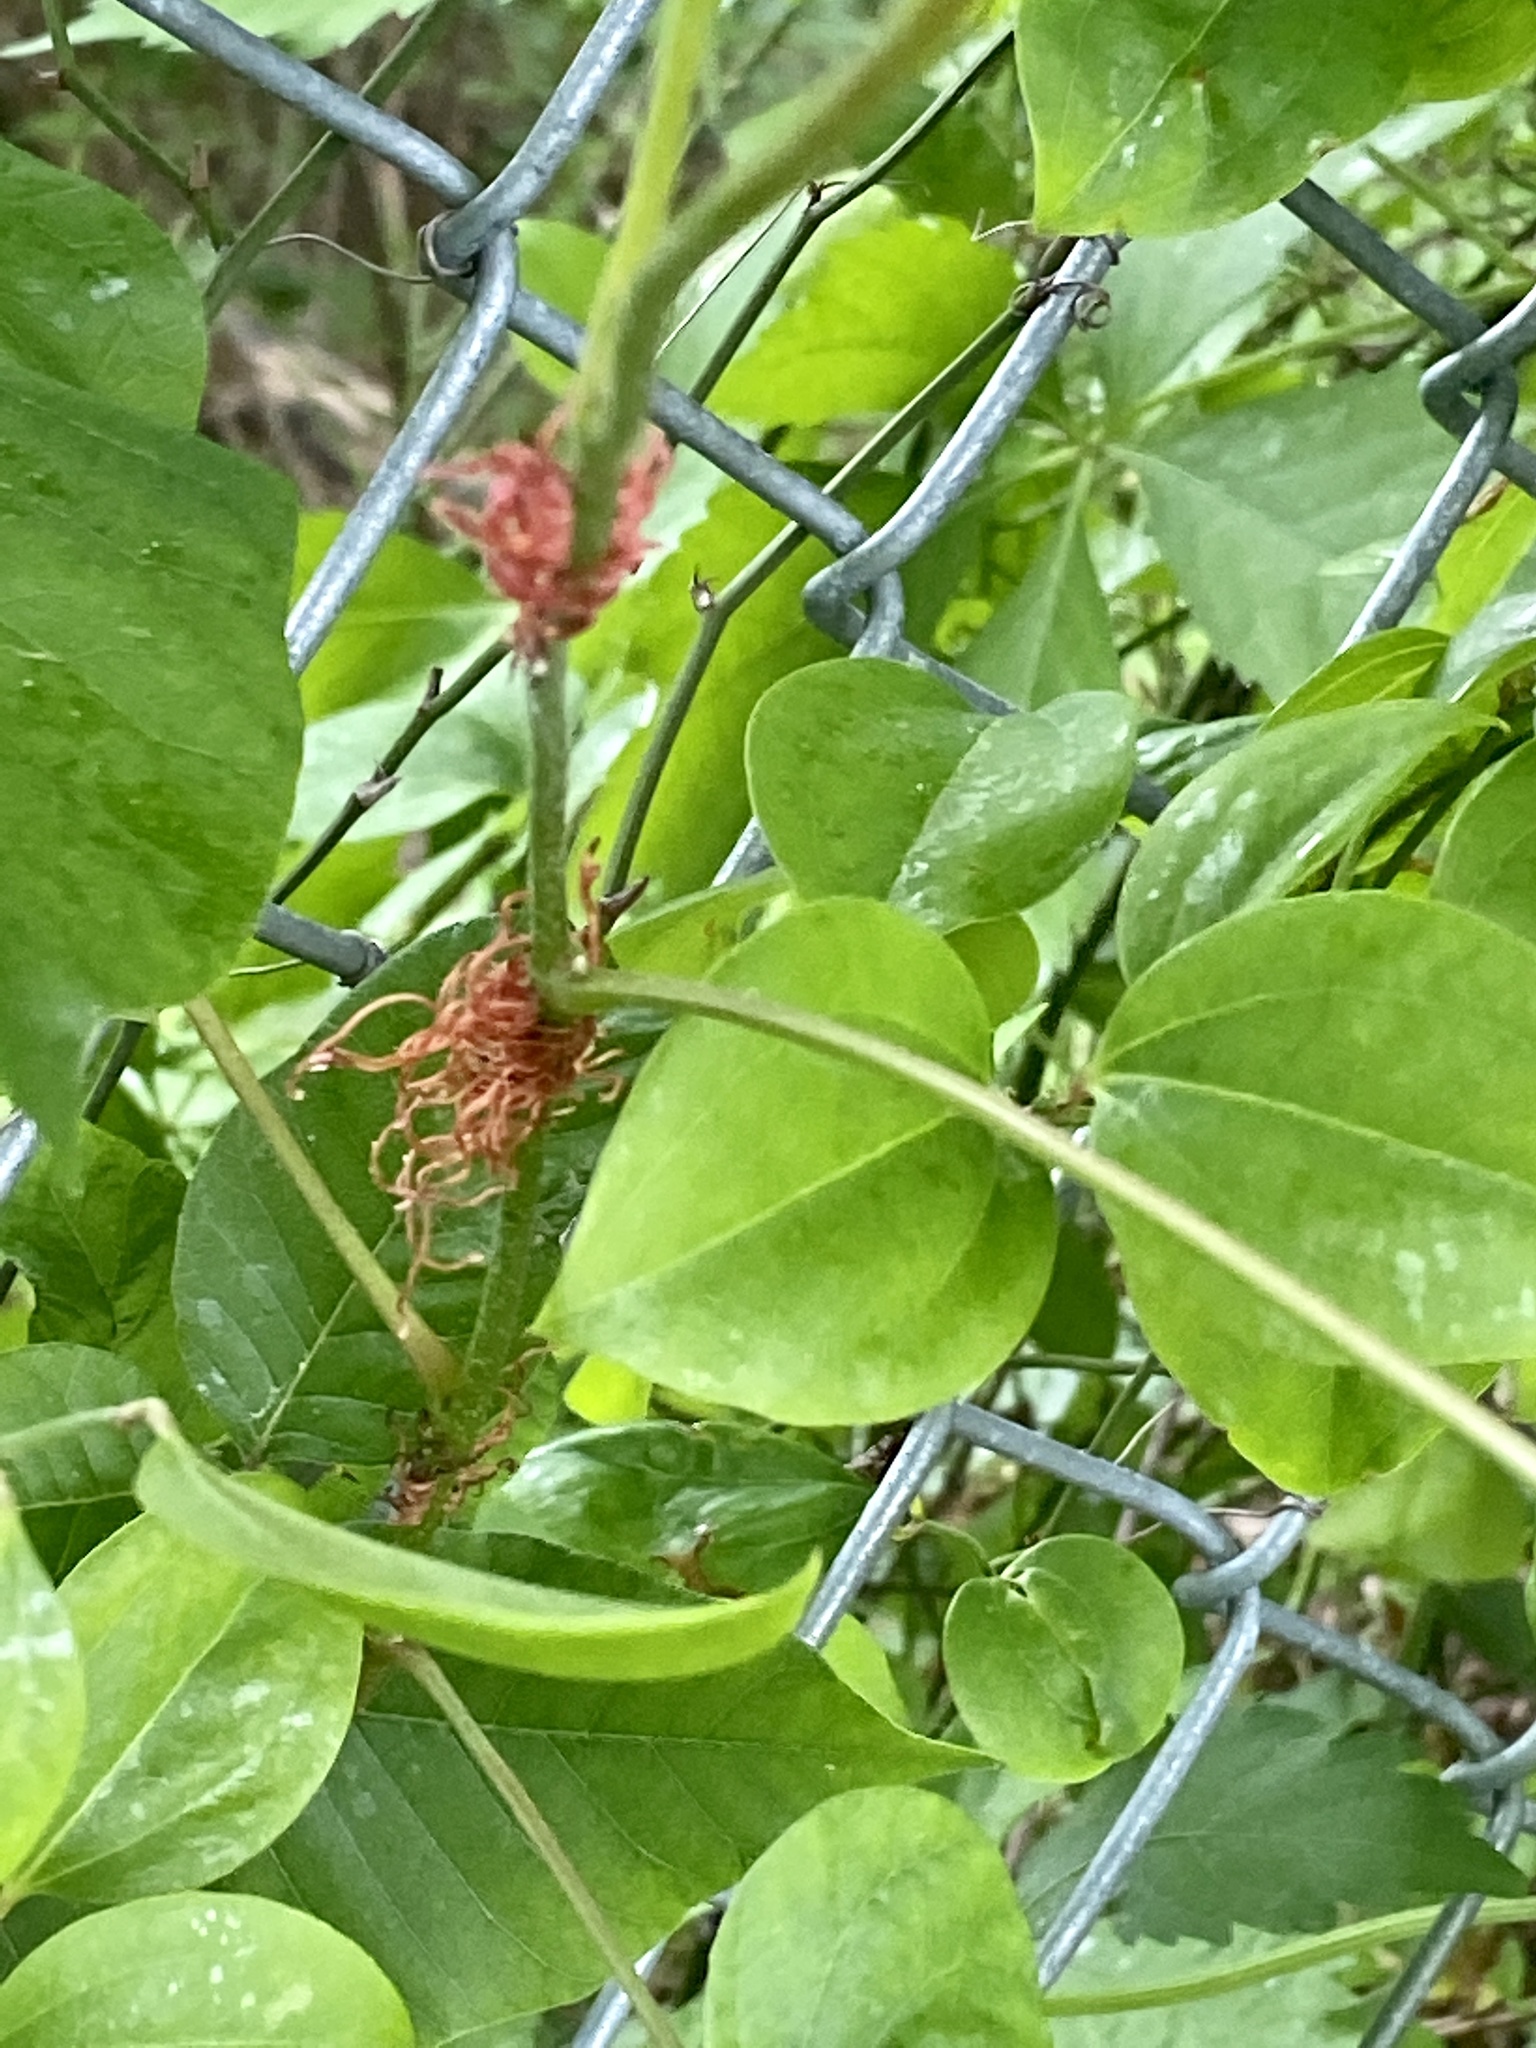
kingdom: Plantae
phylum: Tracheophyta
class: Magnoliopsida
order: Sapindales
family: Anacardiaceae
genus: Toxicodendron
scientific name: Toxicodendron radicans
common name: Poison ivy
